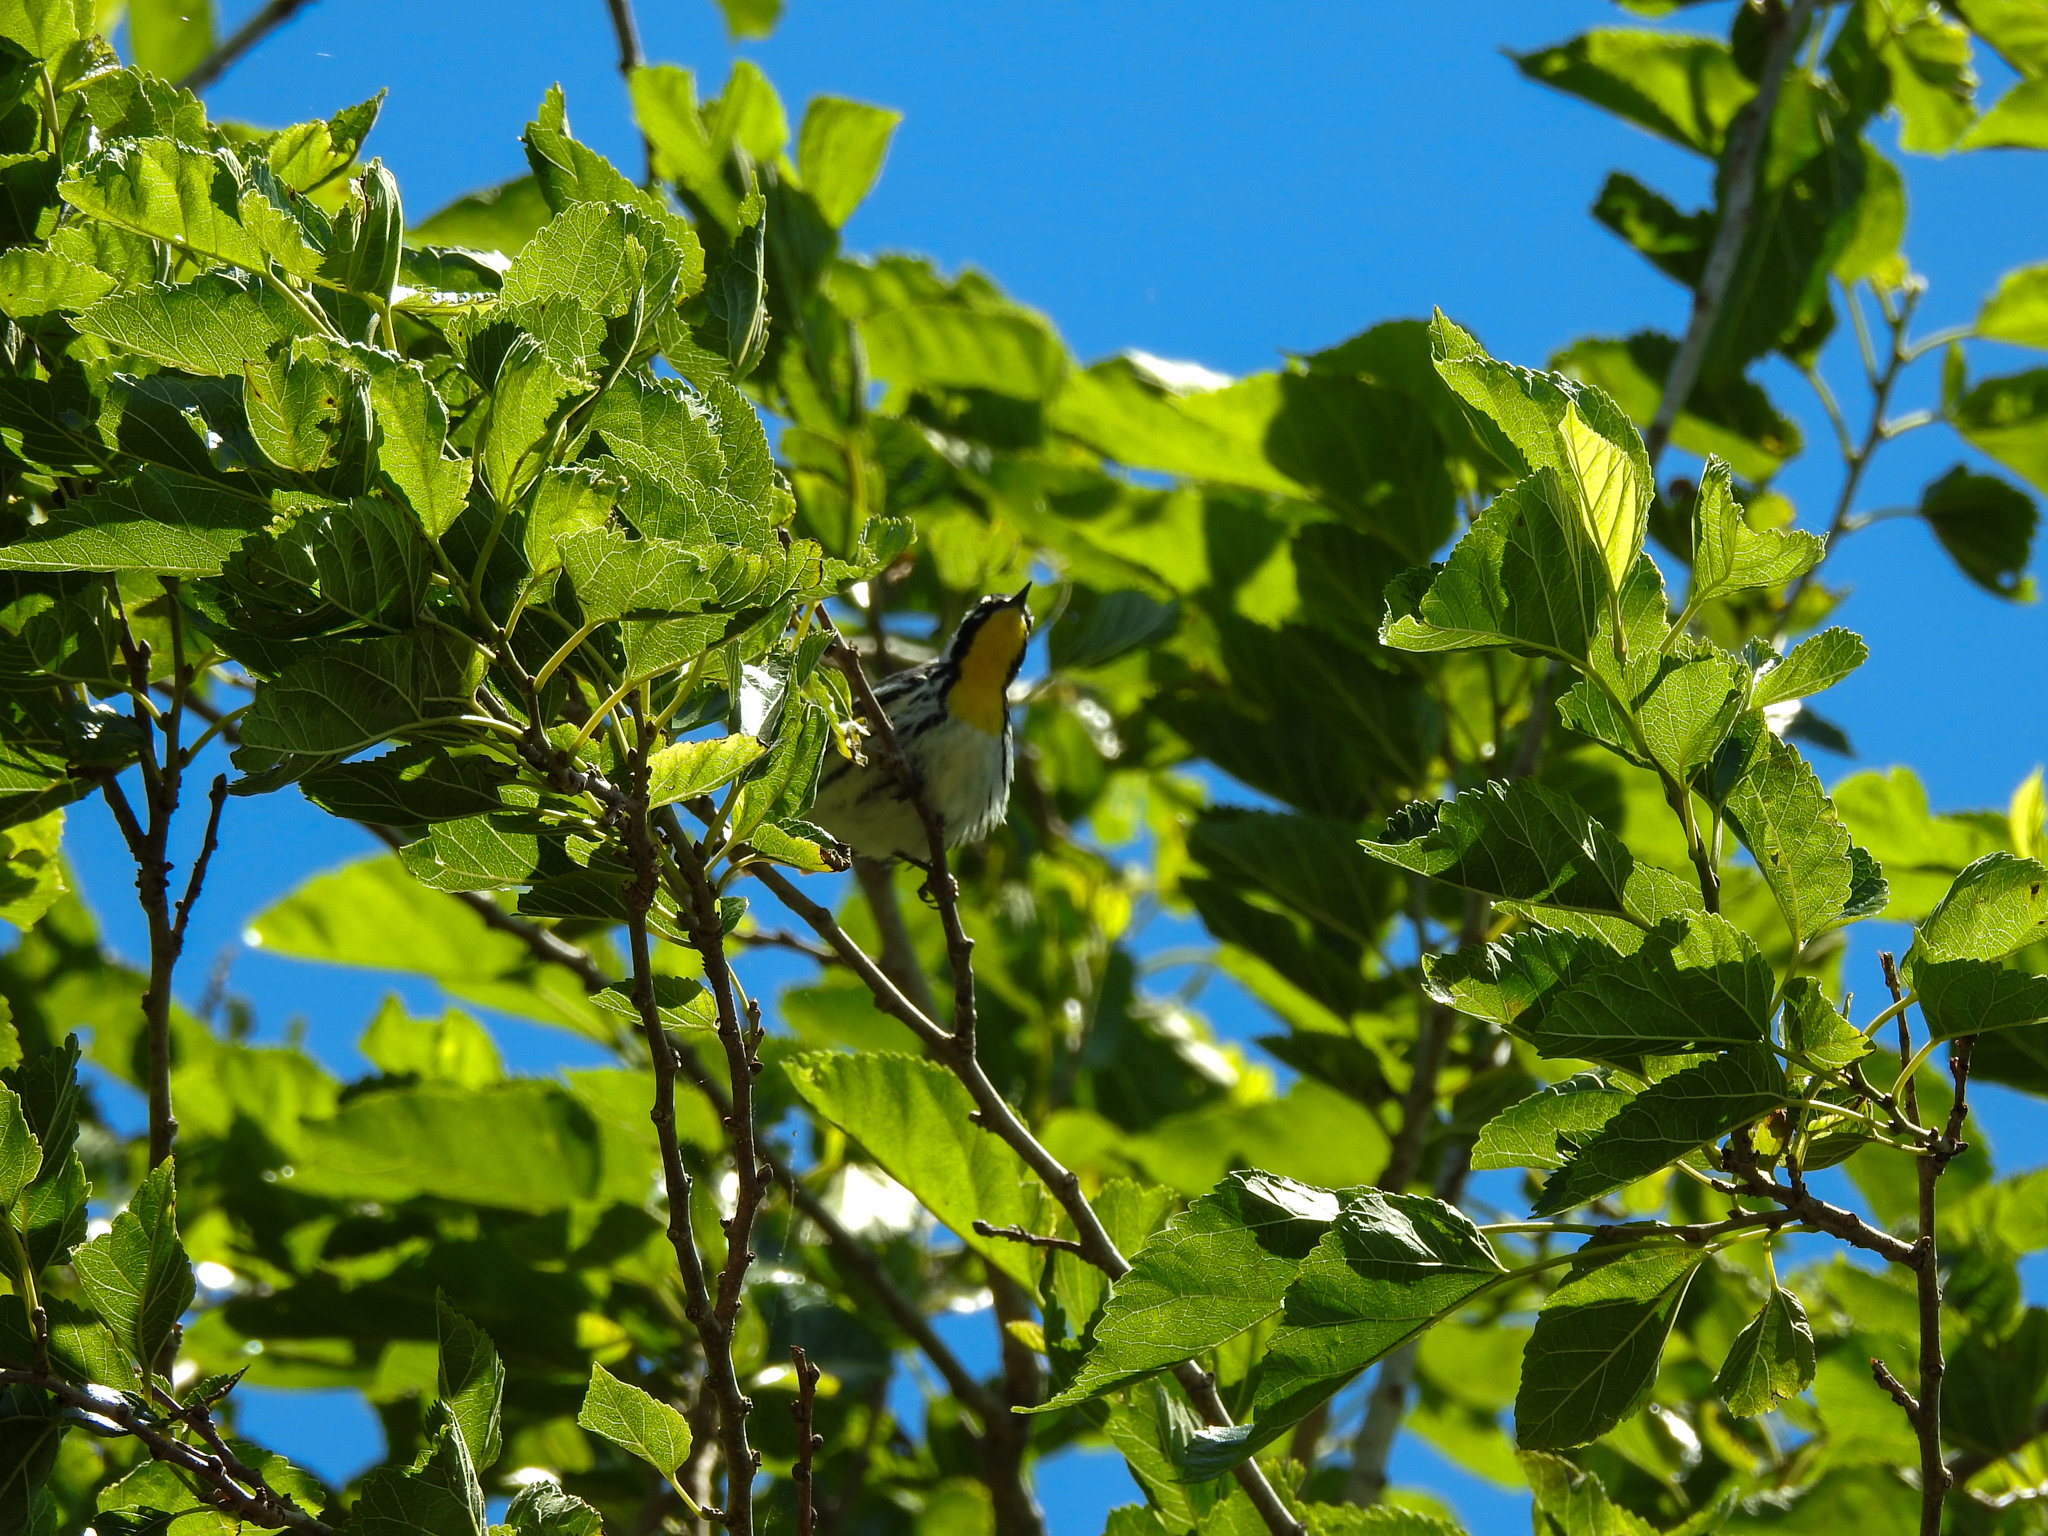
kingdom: Animalia
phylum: Chordata
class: Aves
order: Passeriformes
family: Parulidae
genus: Setophaga
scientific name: Setophaga dominica
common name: Yellow-throated warbler
